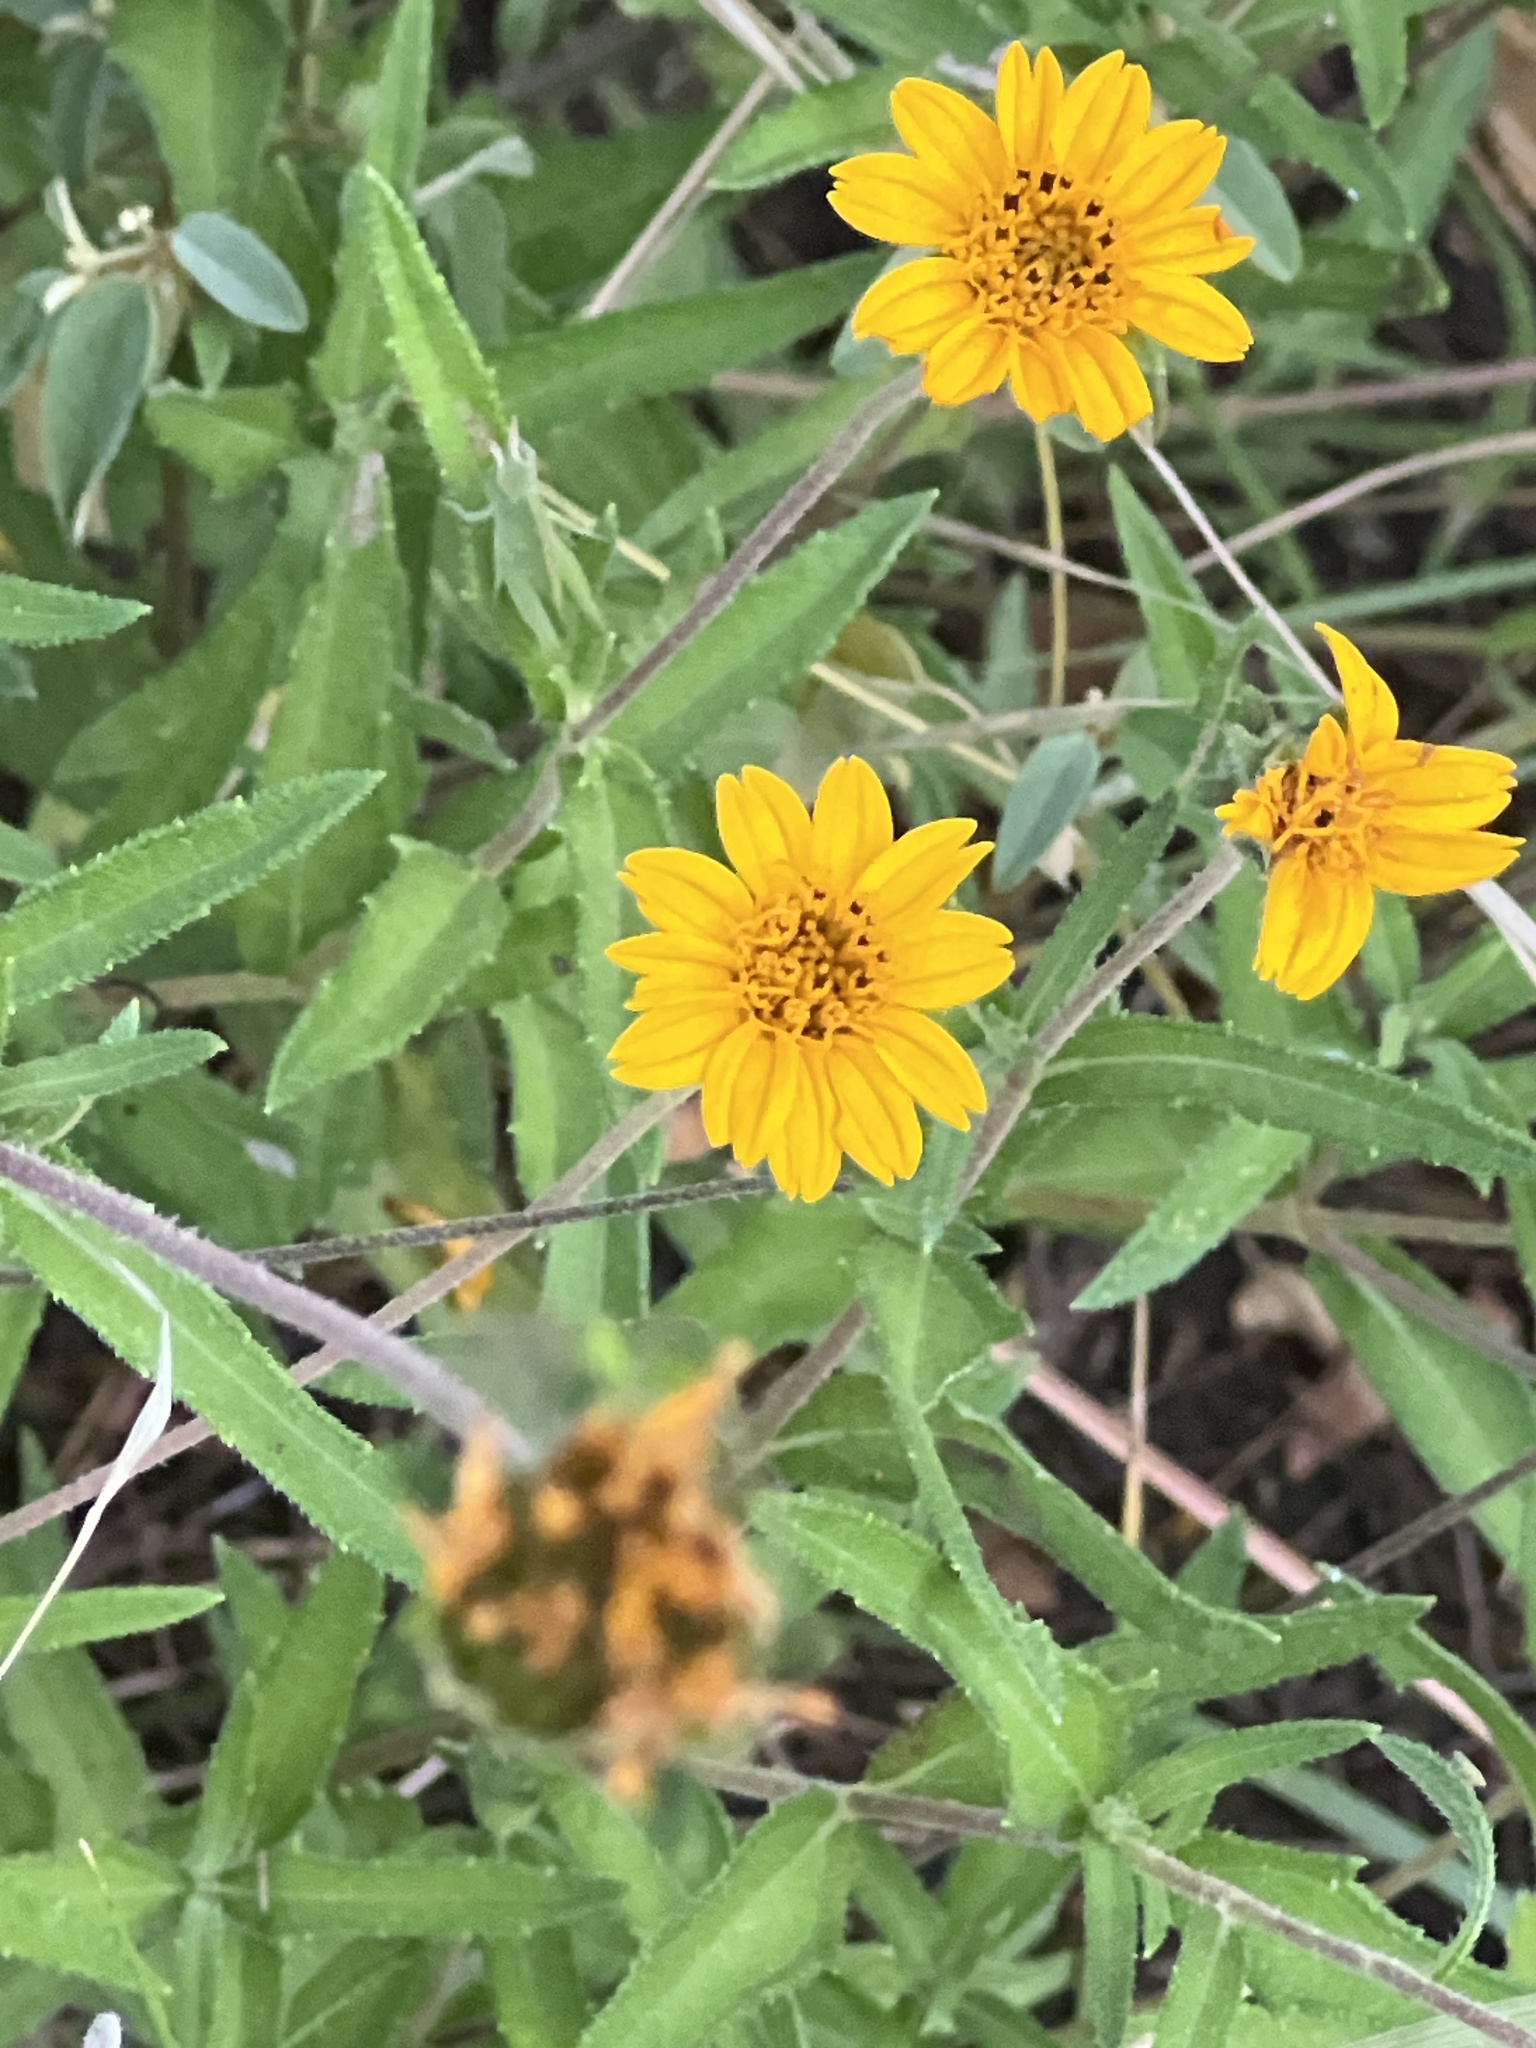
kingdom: Plantae
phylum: Tracheophyta
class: Magnoliopsida
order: Asterales
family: Asteraceae
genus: Wedelia
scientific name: Wedelia acapulcensis
